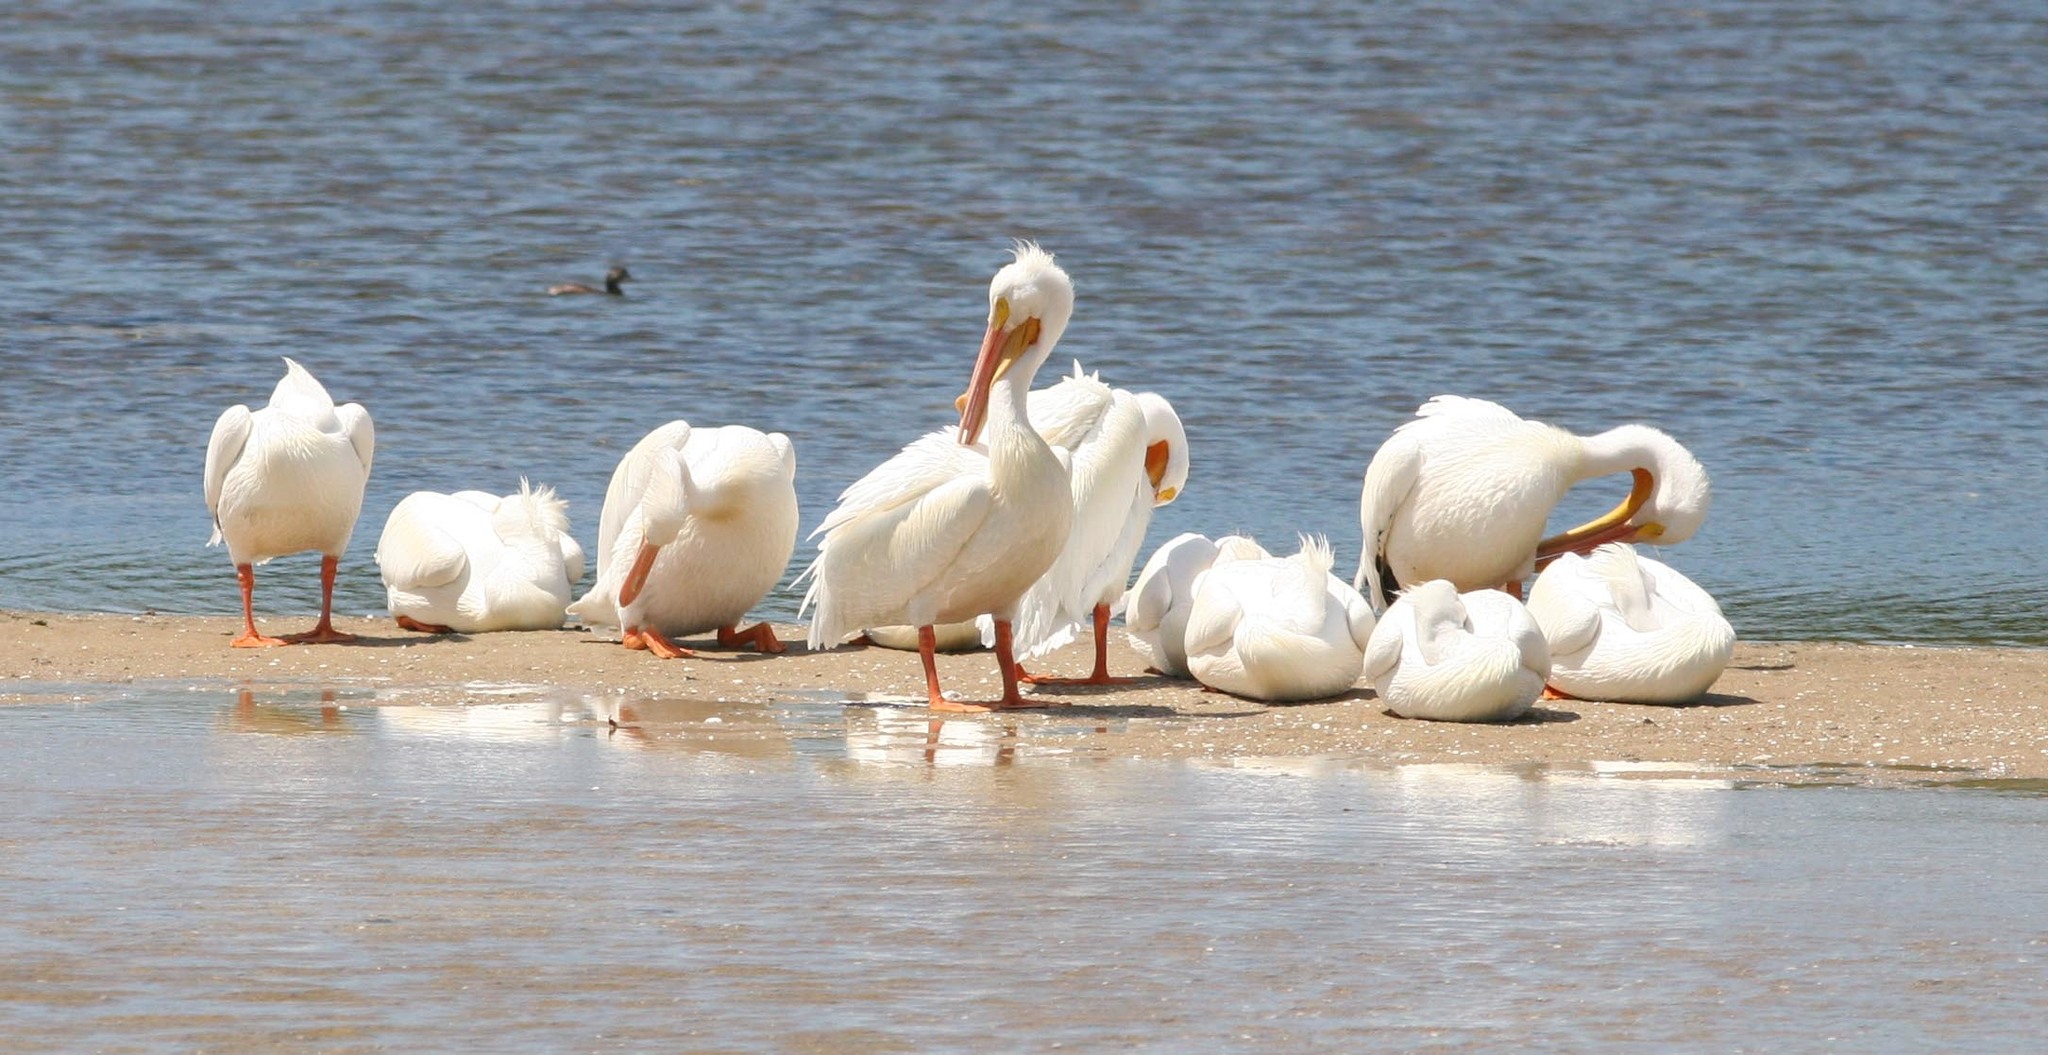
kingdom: Animalia
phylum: Chordata
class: Aves
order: Pelecaniformes
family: Pelecanidae
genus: Pelecanus
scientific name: Pelecanus erythrorhynchos
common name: American white pelican
